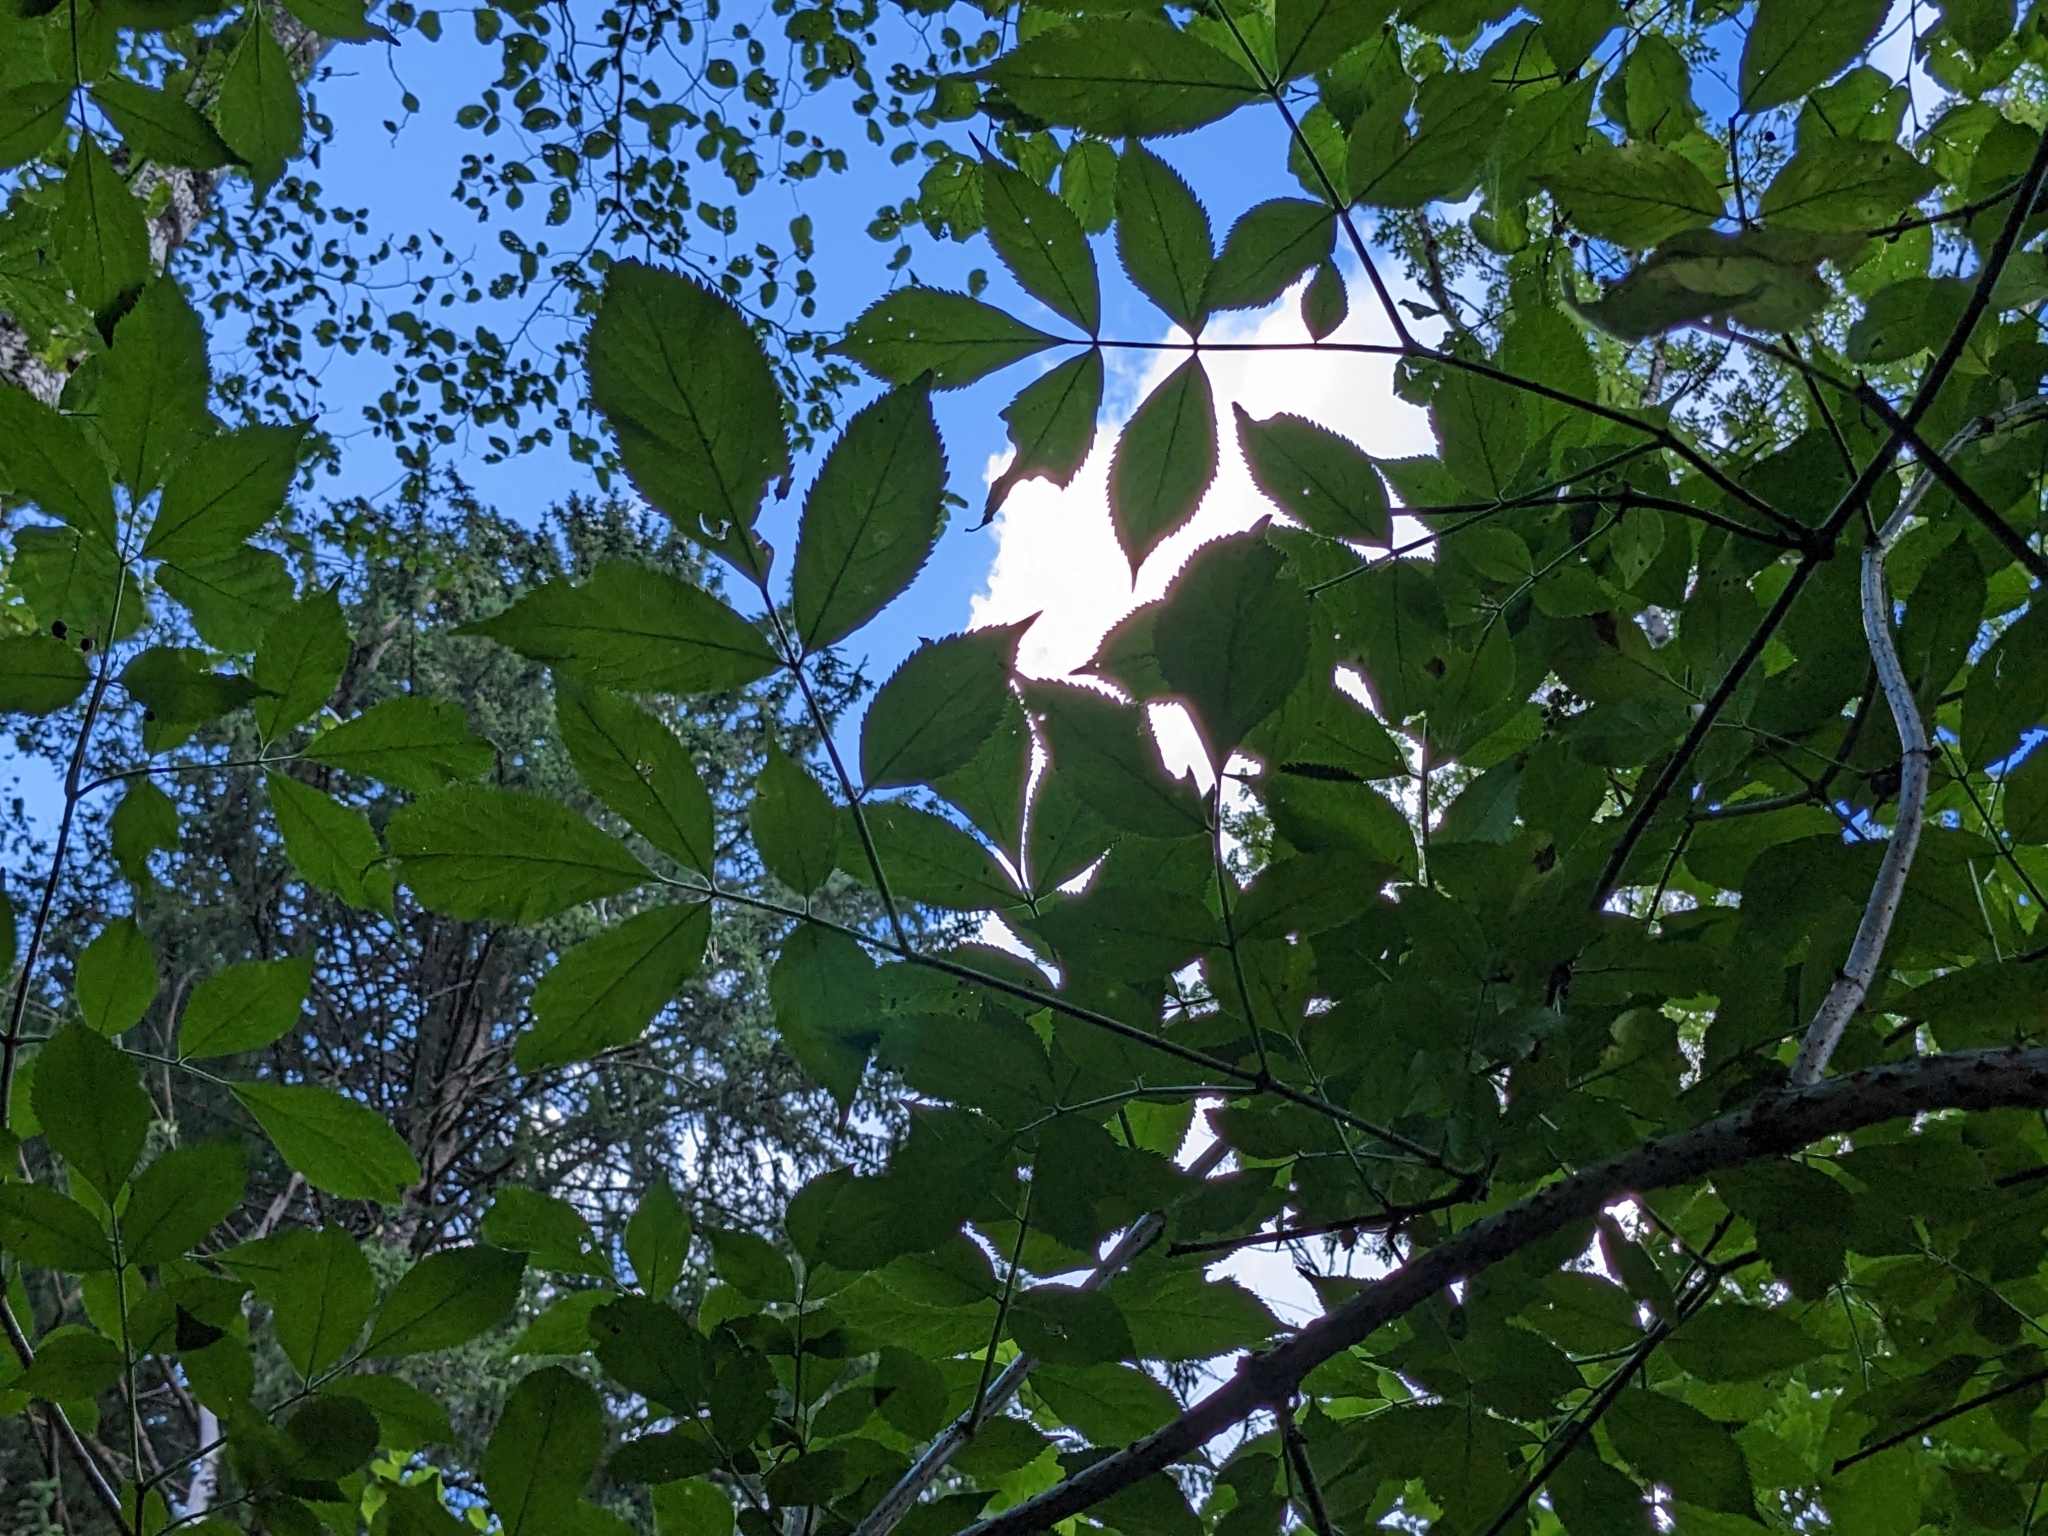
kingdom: Plantae
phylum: Tracheophyta
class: Magnoliopsida
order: Dipsacales
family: Viburnaceae
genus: Sambucus
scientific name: Sambucus nigra
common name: Elder
